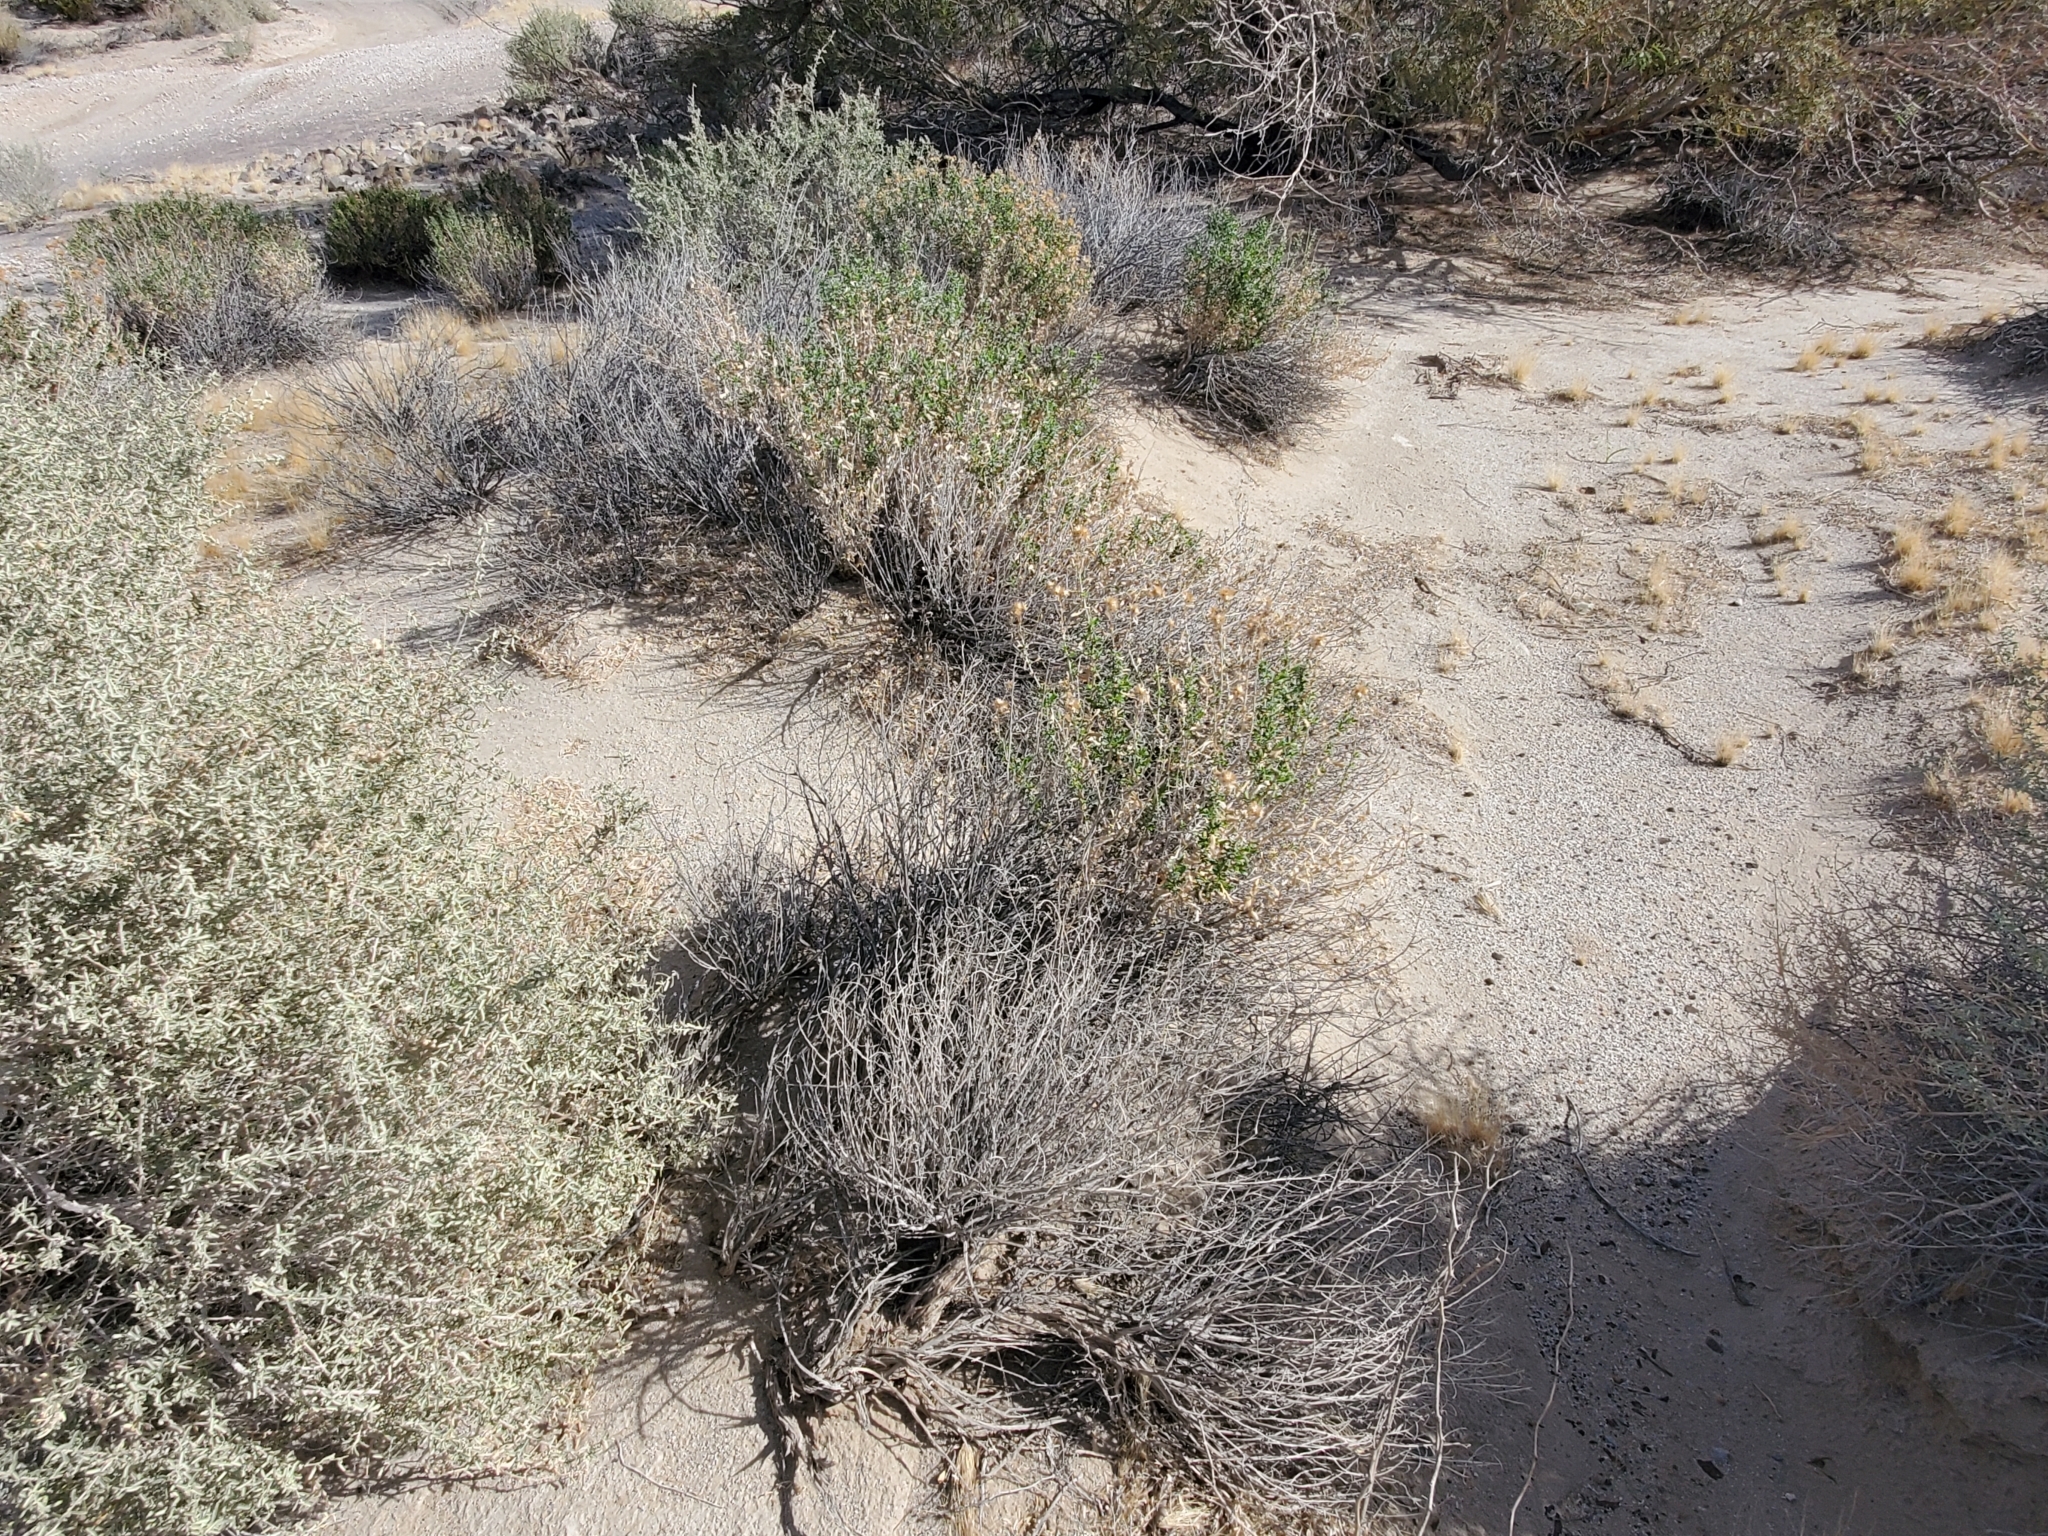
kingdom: Plantae
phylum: Tracheophyta
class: Magnoliopsida
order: Asterales
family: Asteraceae
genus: Isocoma
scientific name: Isocoma acradenia
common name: Alkali jimmyweed
